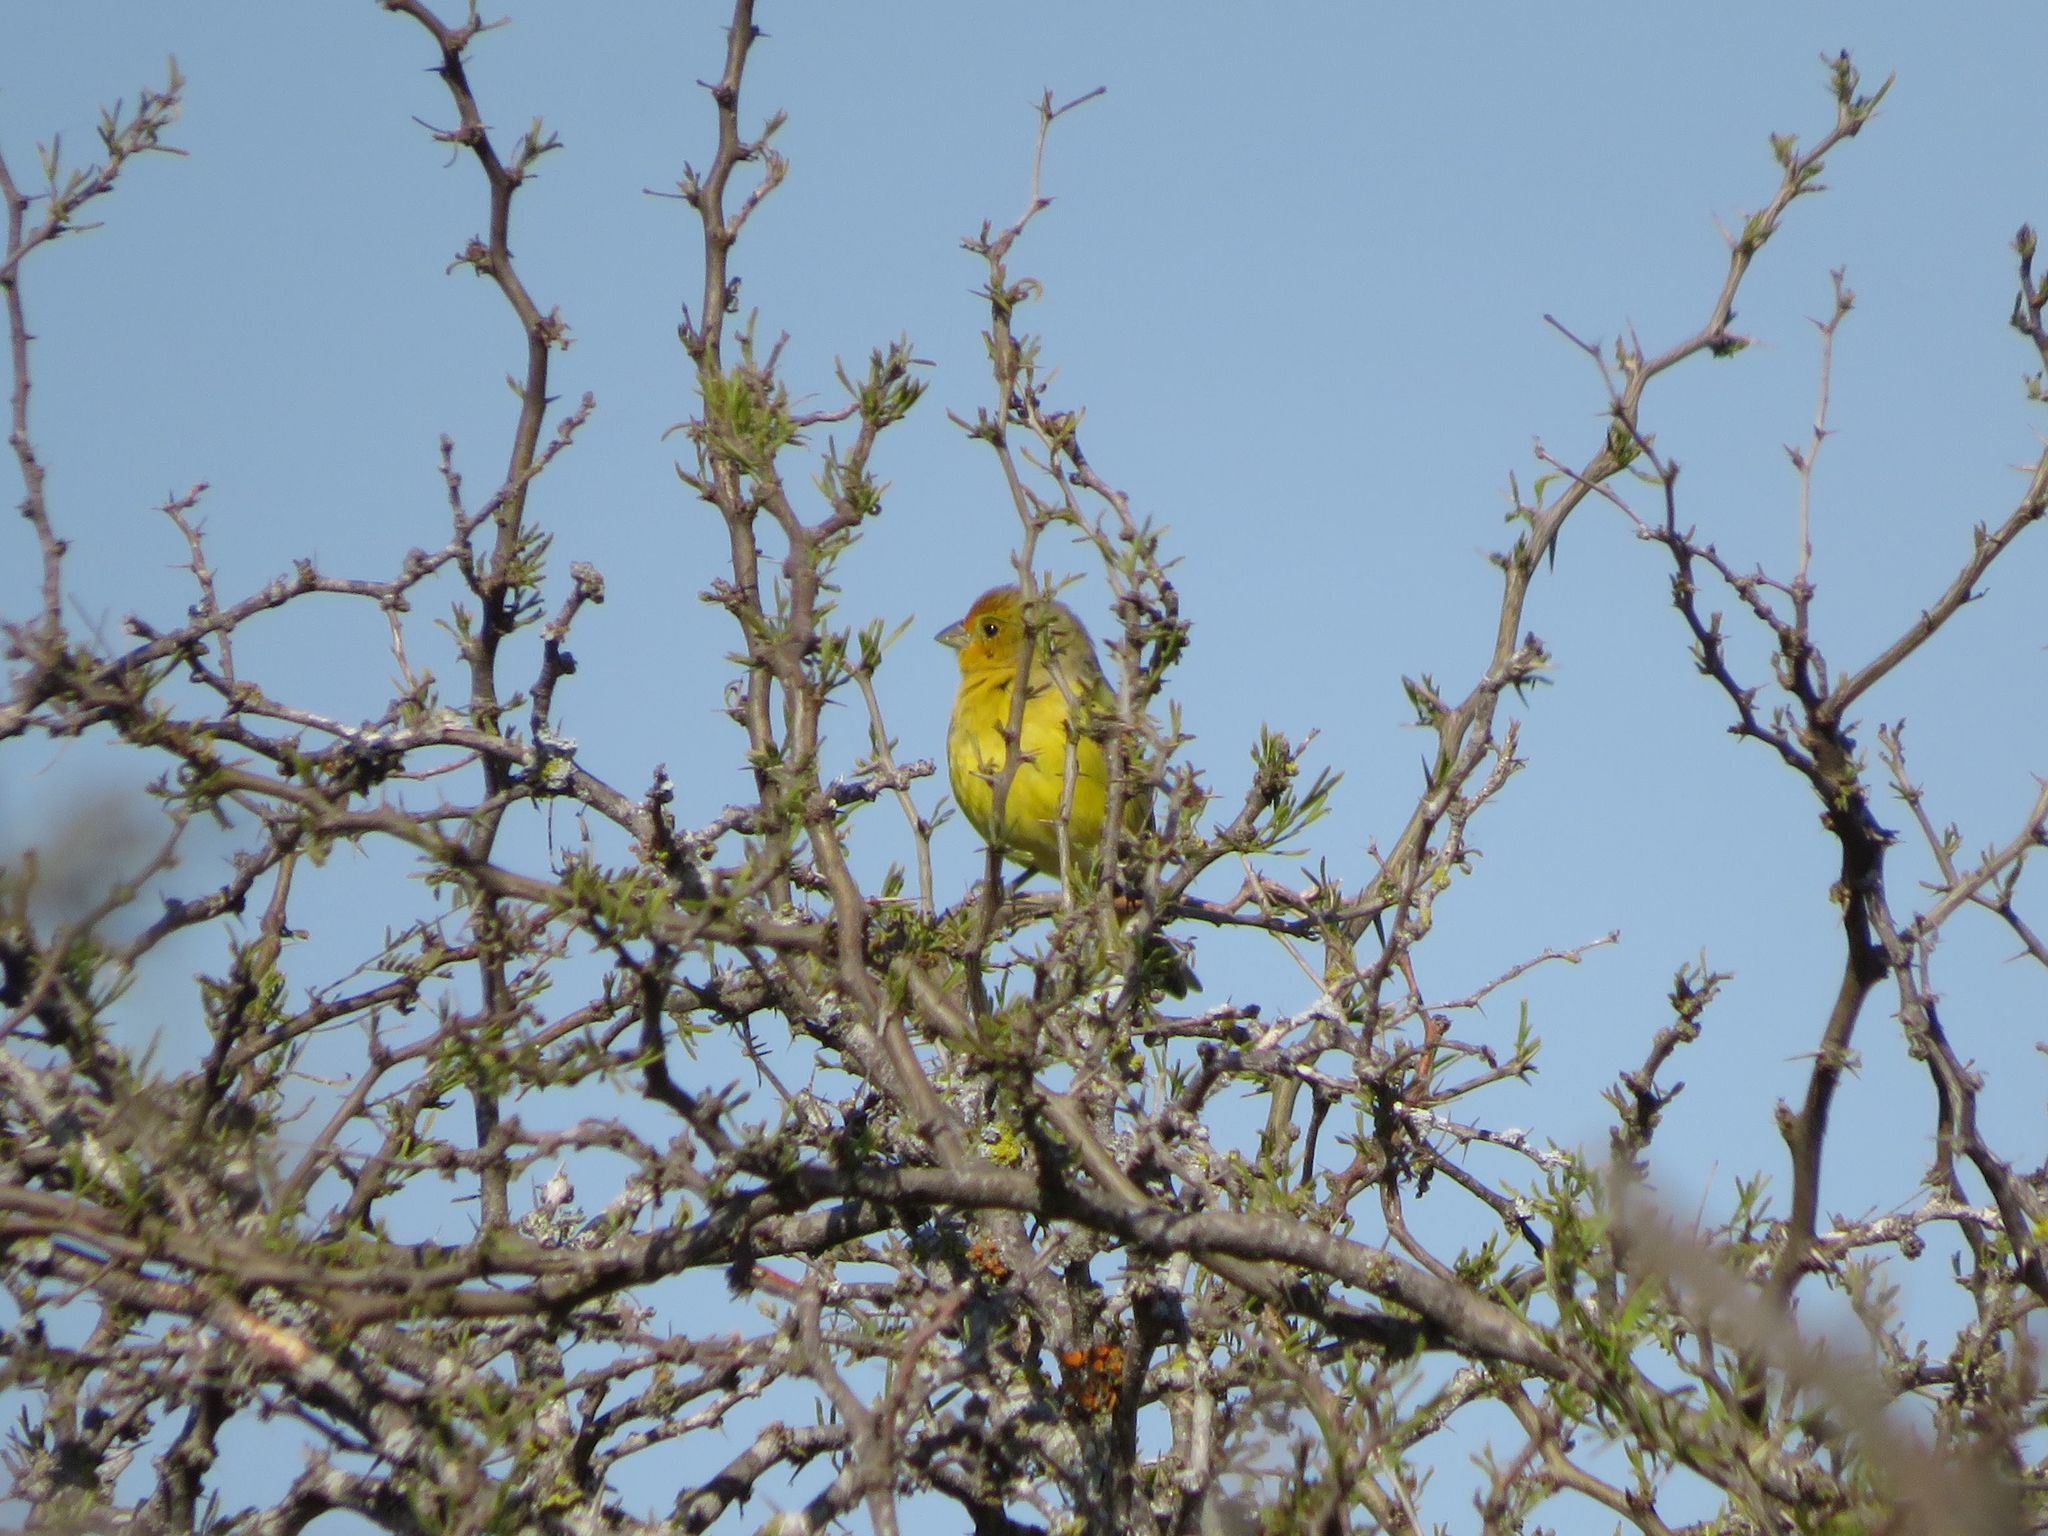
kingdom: Animalia
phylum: Chordata
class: Aves
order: Passeriformes
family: Thraupidae
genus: Sicalis
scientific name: Sicalis flaveola
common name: Saffron finch
